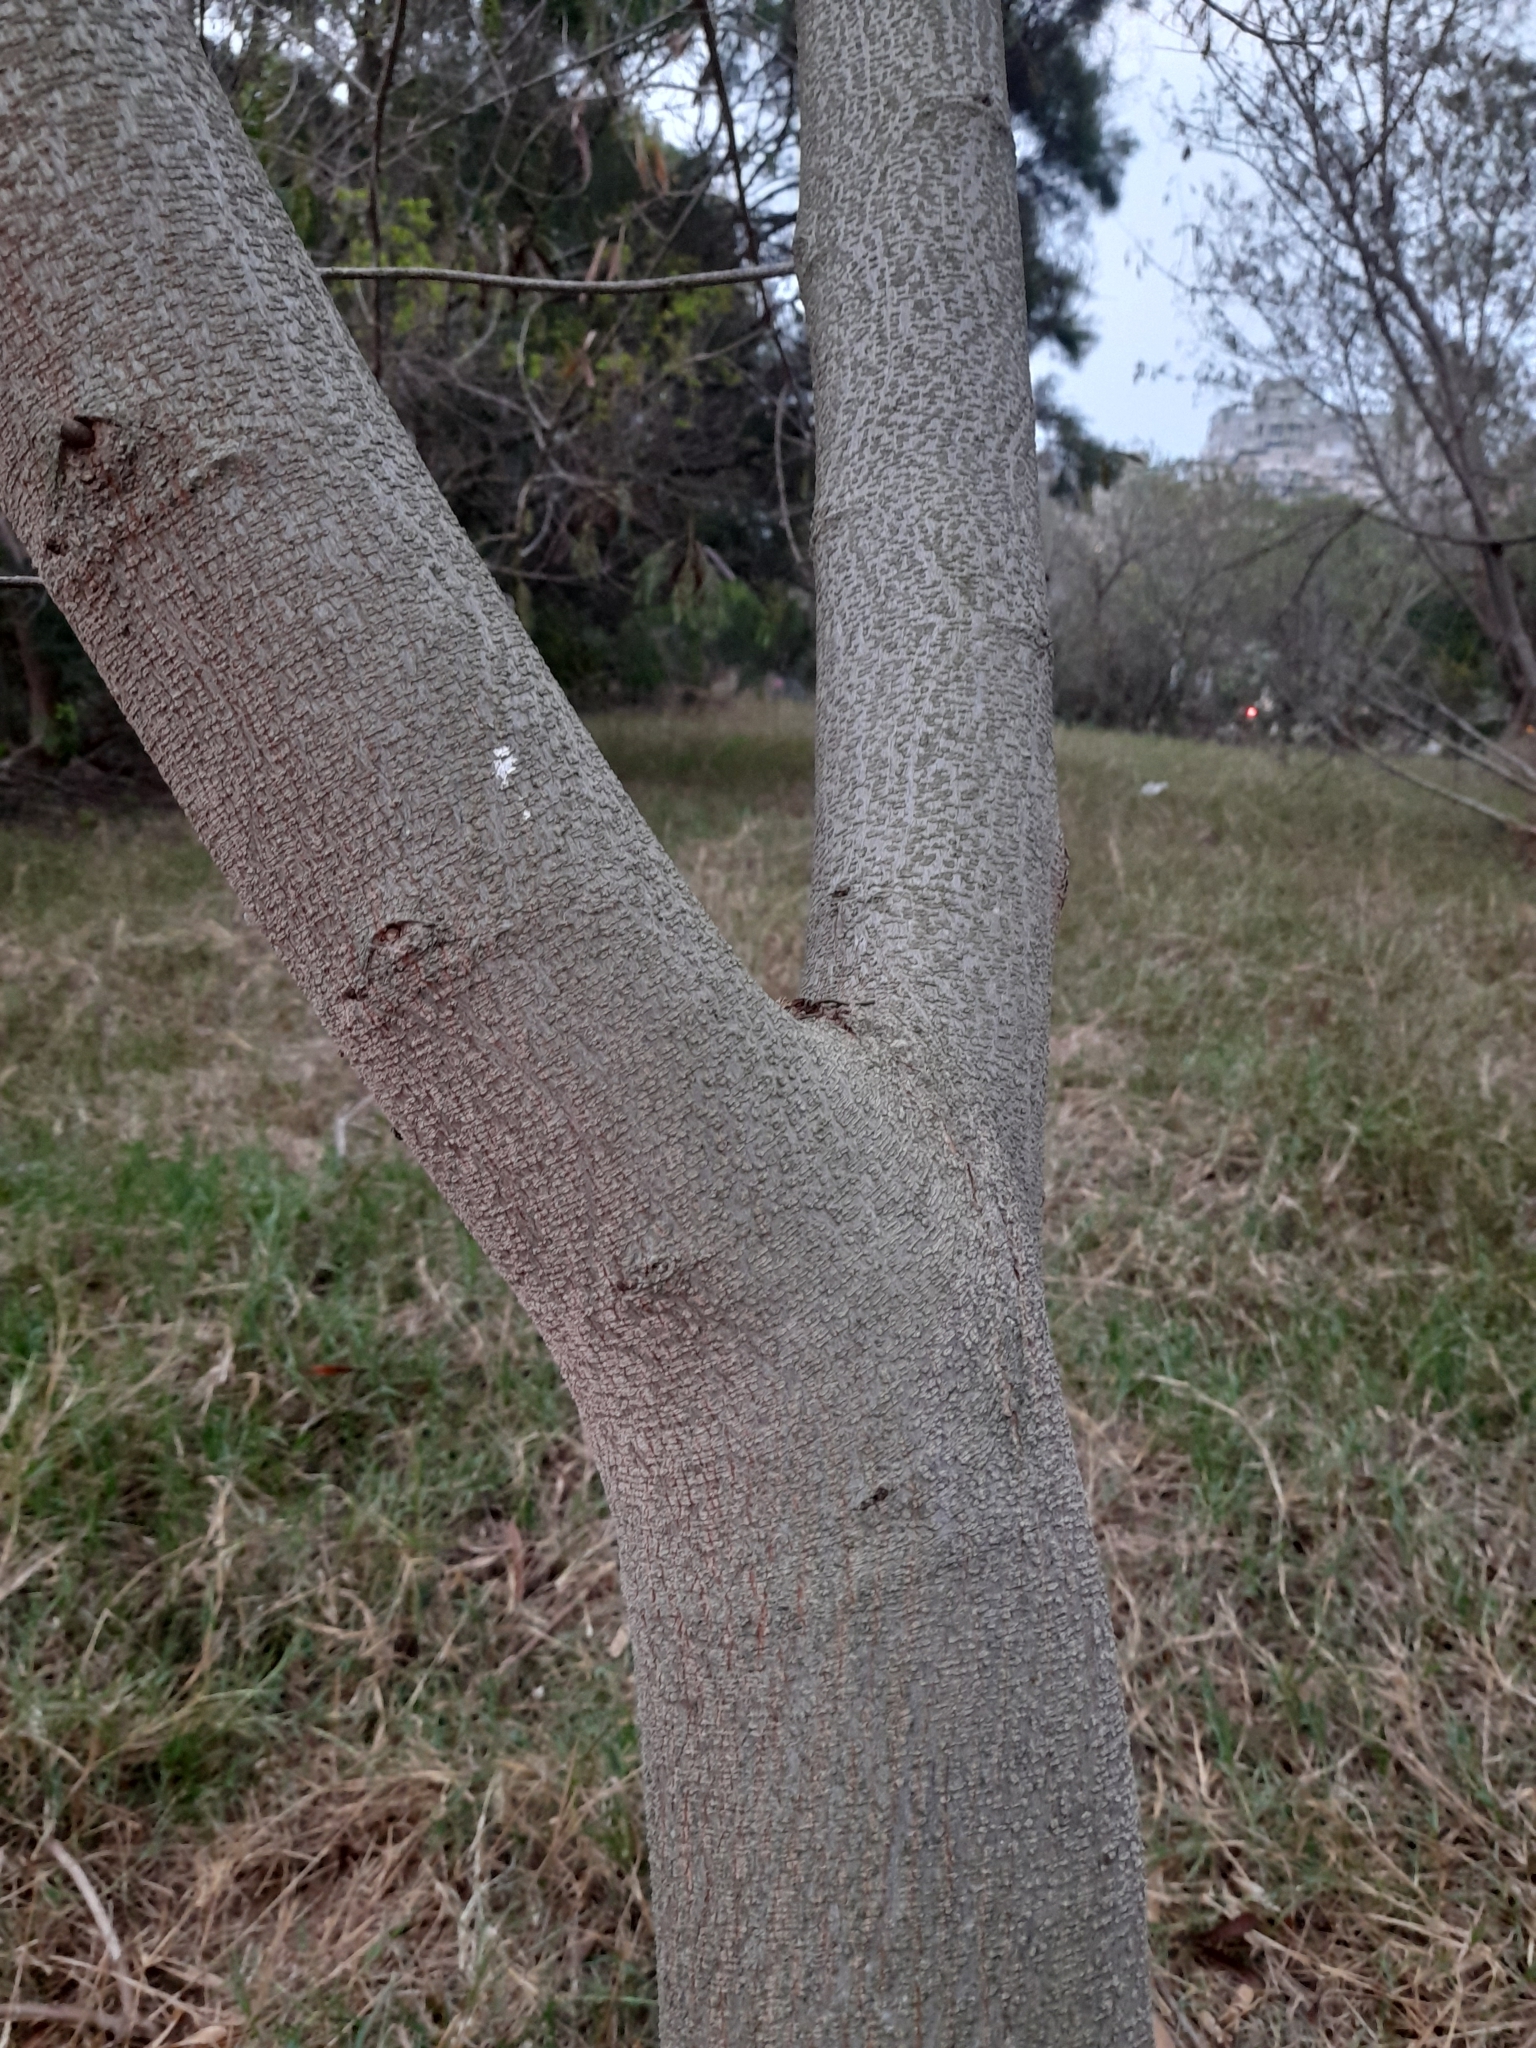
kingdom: Plantae
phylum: Tracheophyta
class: Magnoliopsida
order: Fabales
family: Fabaceae
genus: Leucaena
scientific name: Leucaena leucocephala
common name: White leadtree
